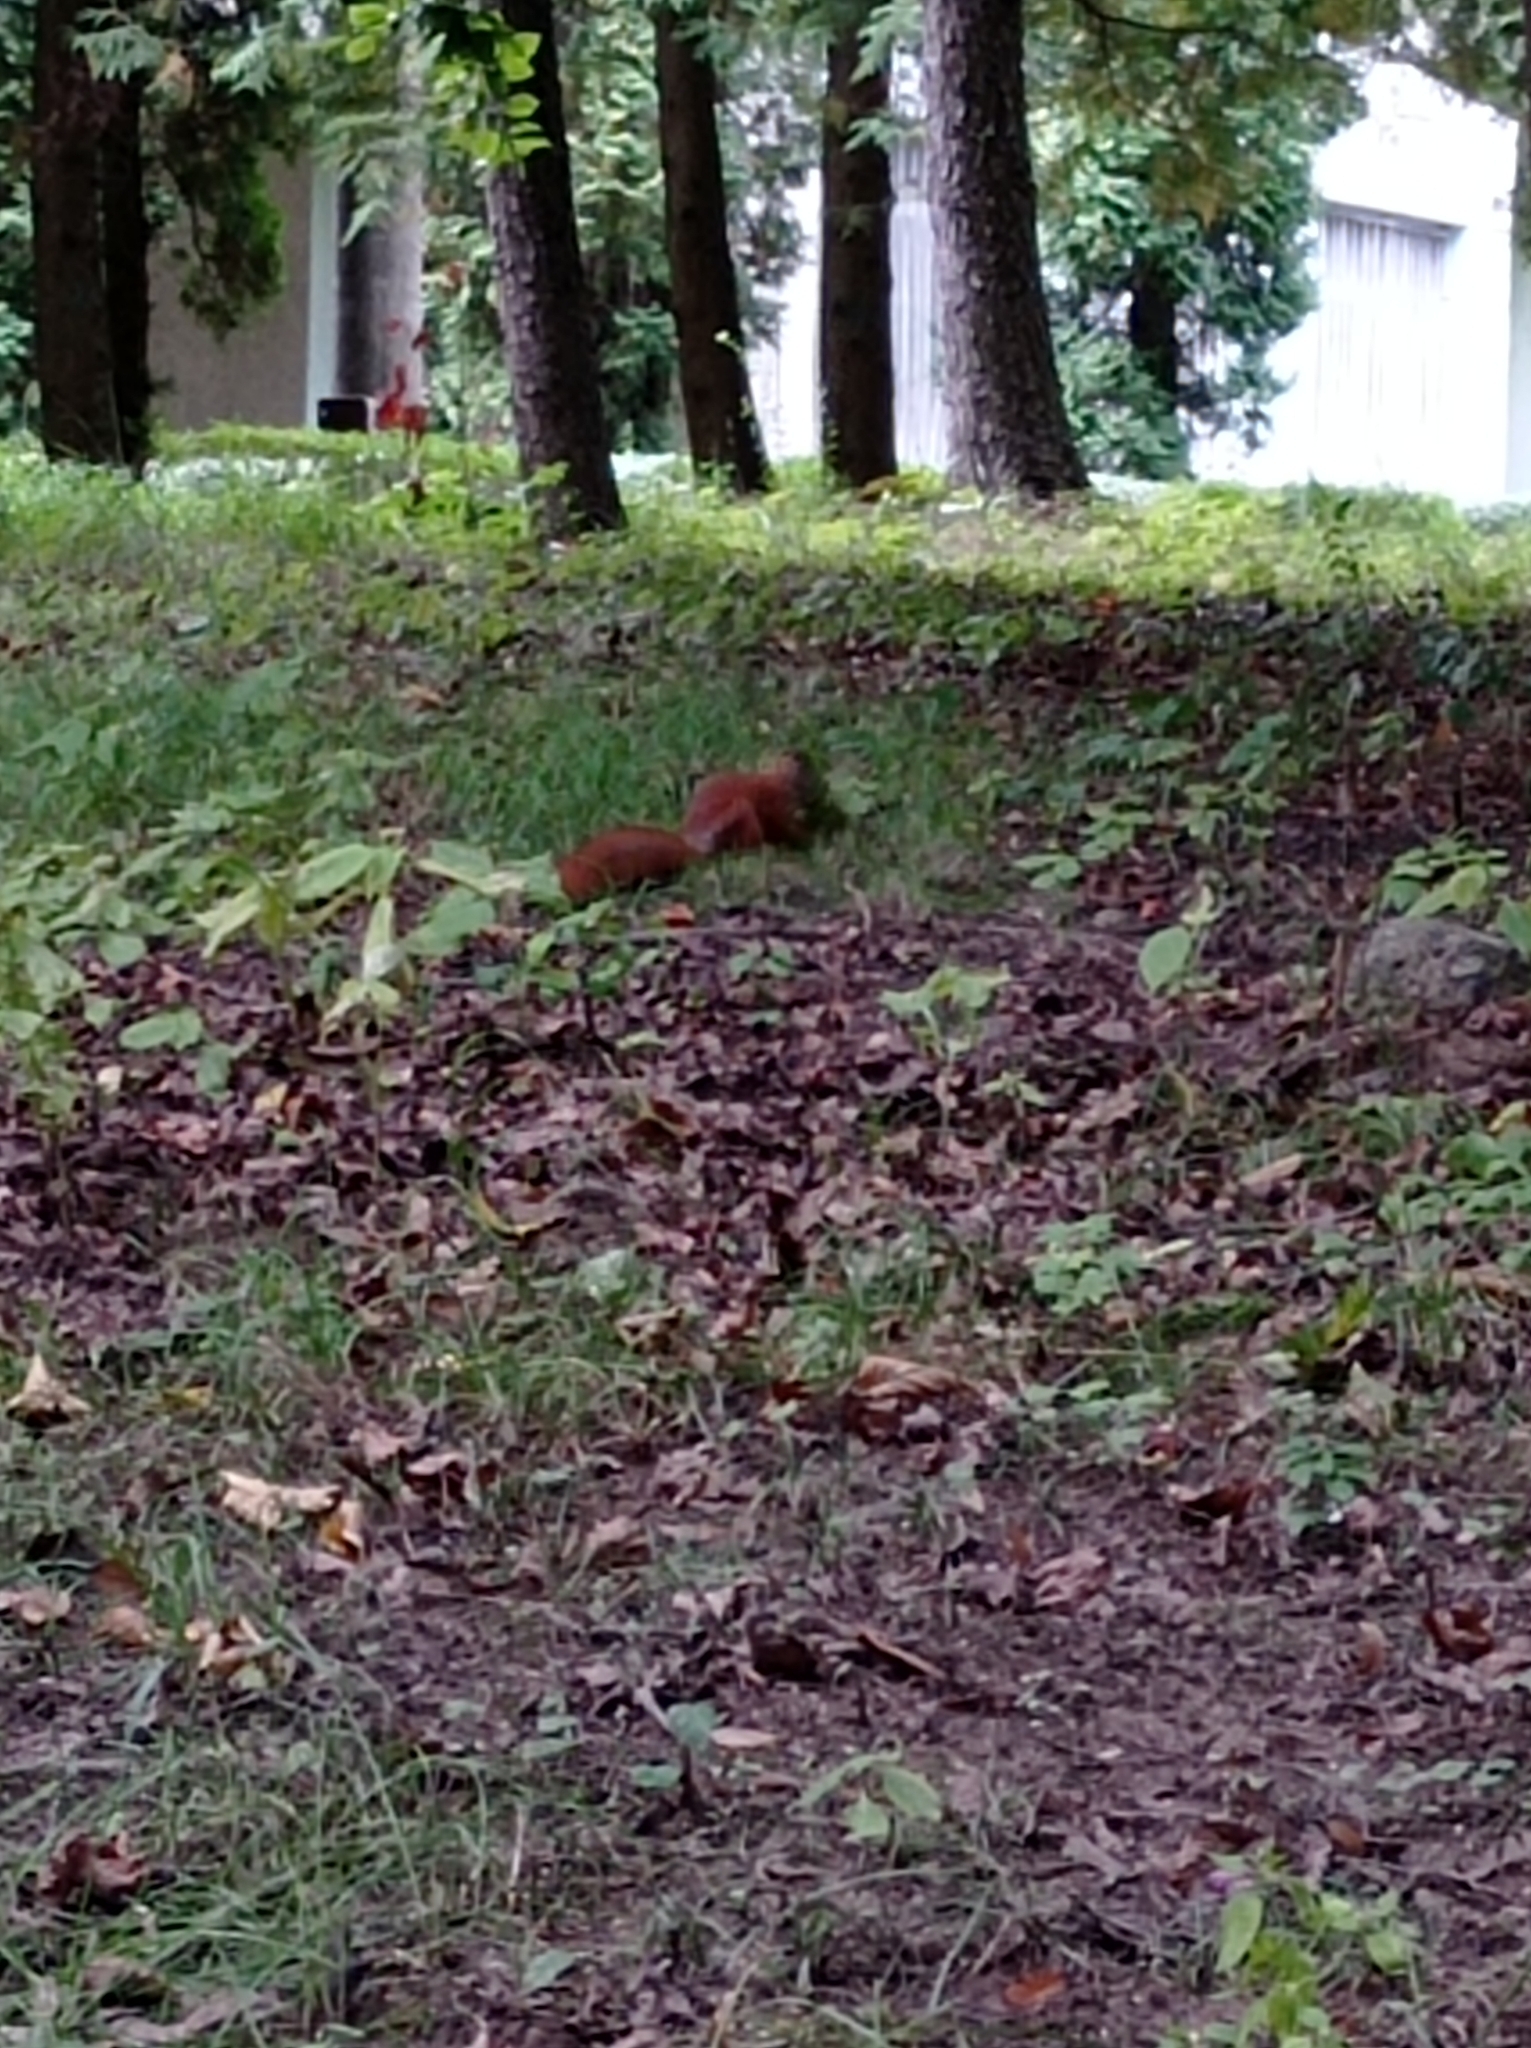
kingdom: Animalia
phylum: Chordata
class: Mammalia
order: Rodentia
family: Sciuridae
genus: Sciurus
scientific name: Sciurus vulgaris
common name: Eurasian red squirrel
